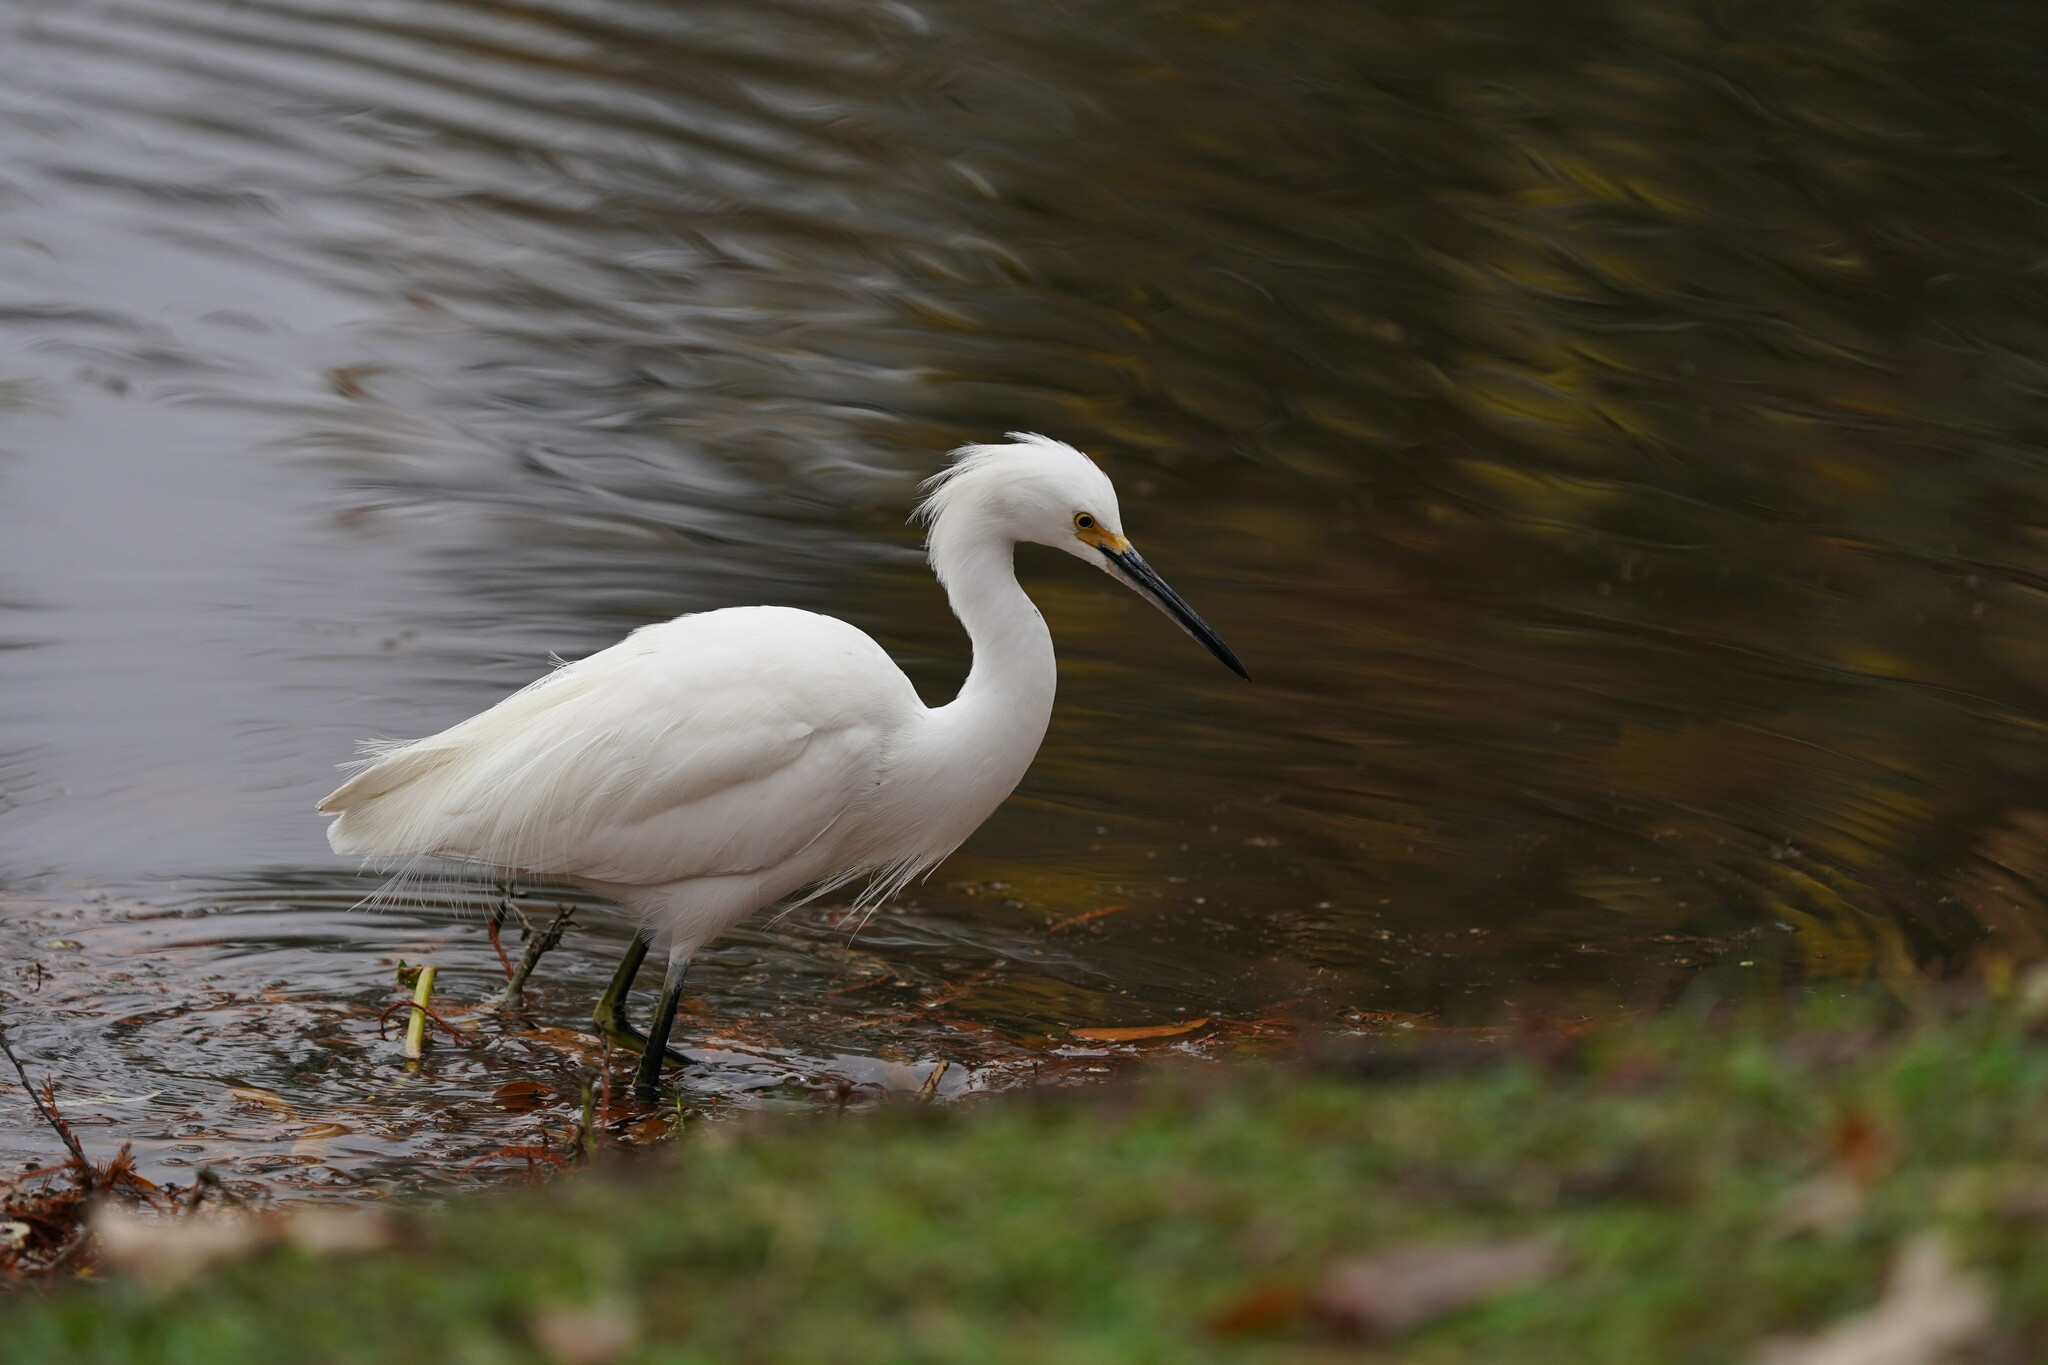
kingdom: Animalia
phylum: Chordata
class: Aves
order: Pelecaniformes
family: Ardeidae
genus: Egretta
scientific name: Egretta thula
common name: Snowy egret
